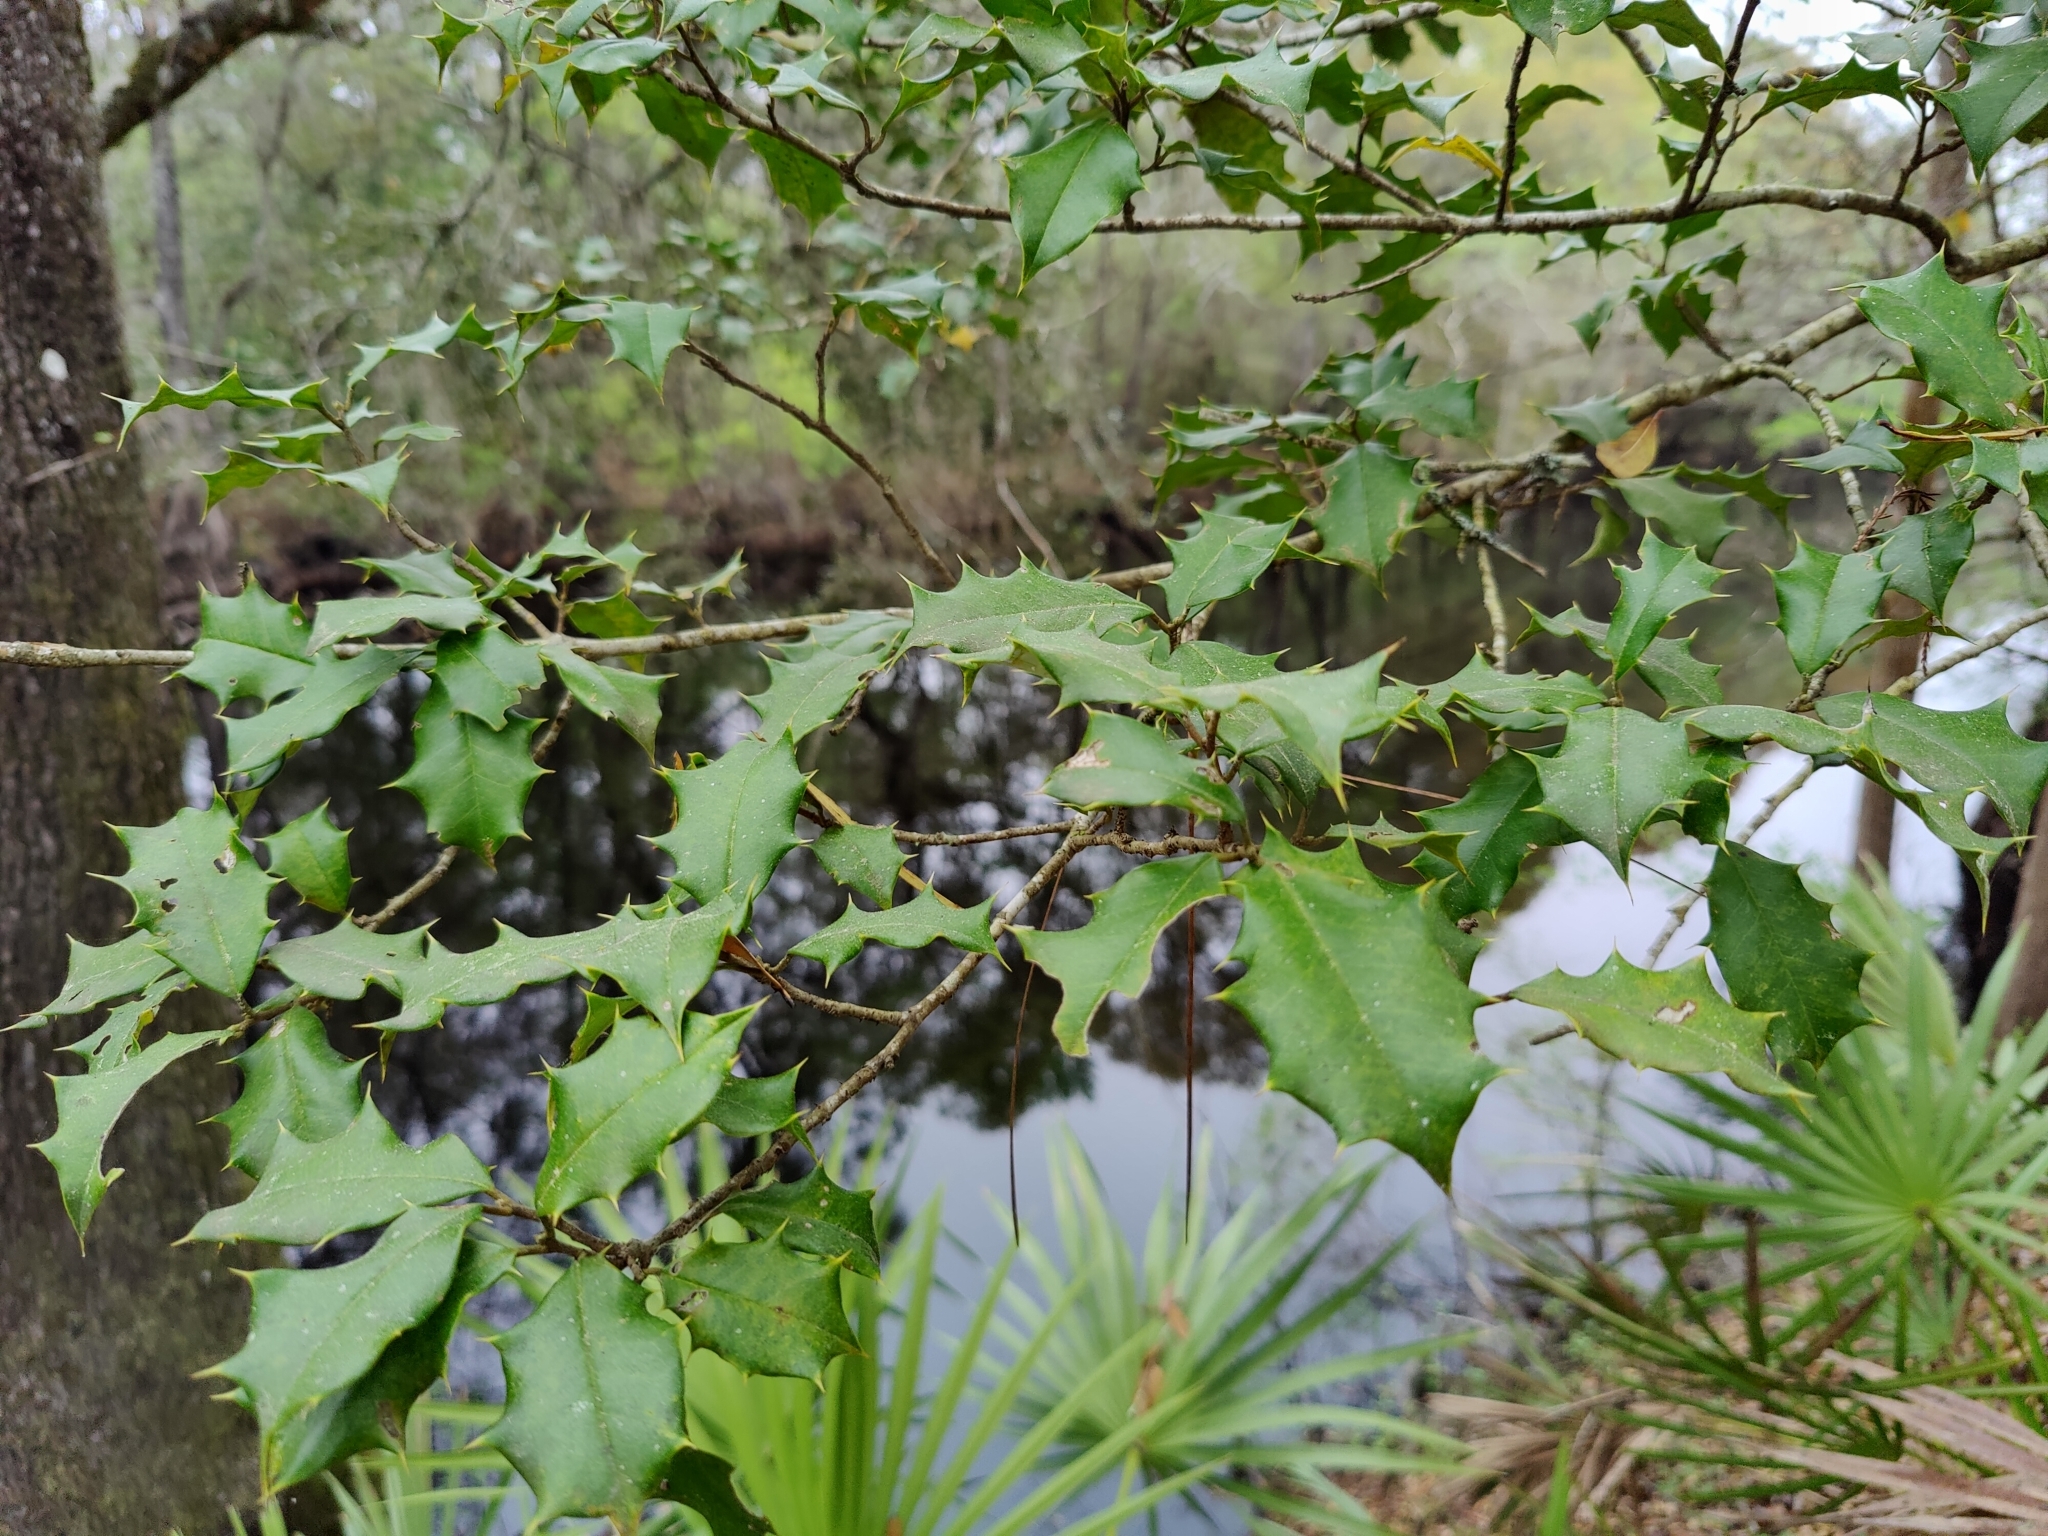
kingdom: Plantae
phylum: Tracheophyta
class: Magnoliopsida
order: Aquifoliales
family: Aquifoliaceae
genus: Ilex
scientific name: Ilex opaca
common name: American holly
